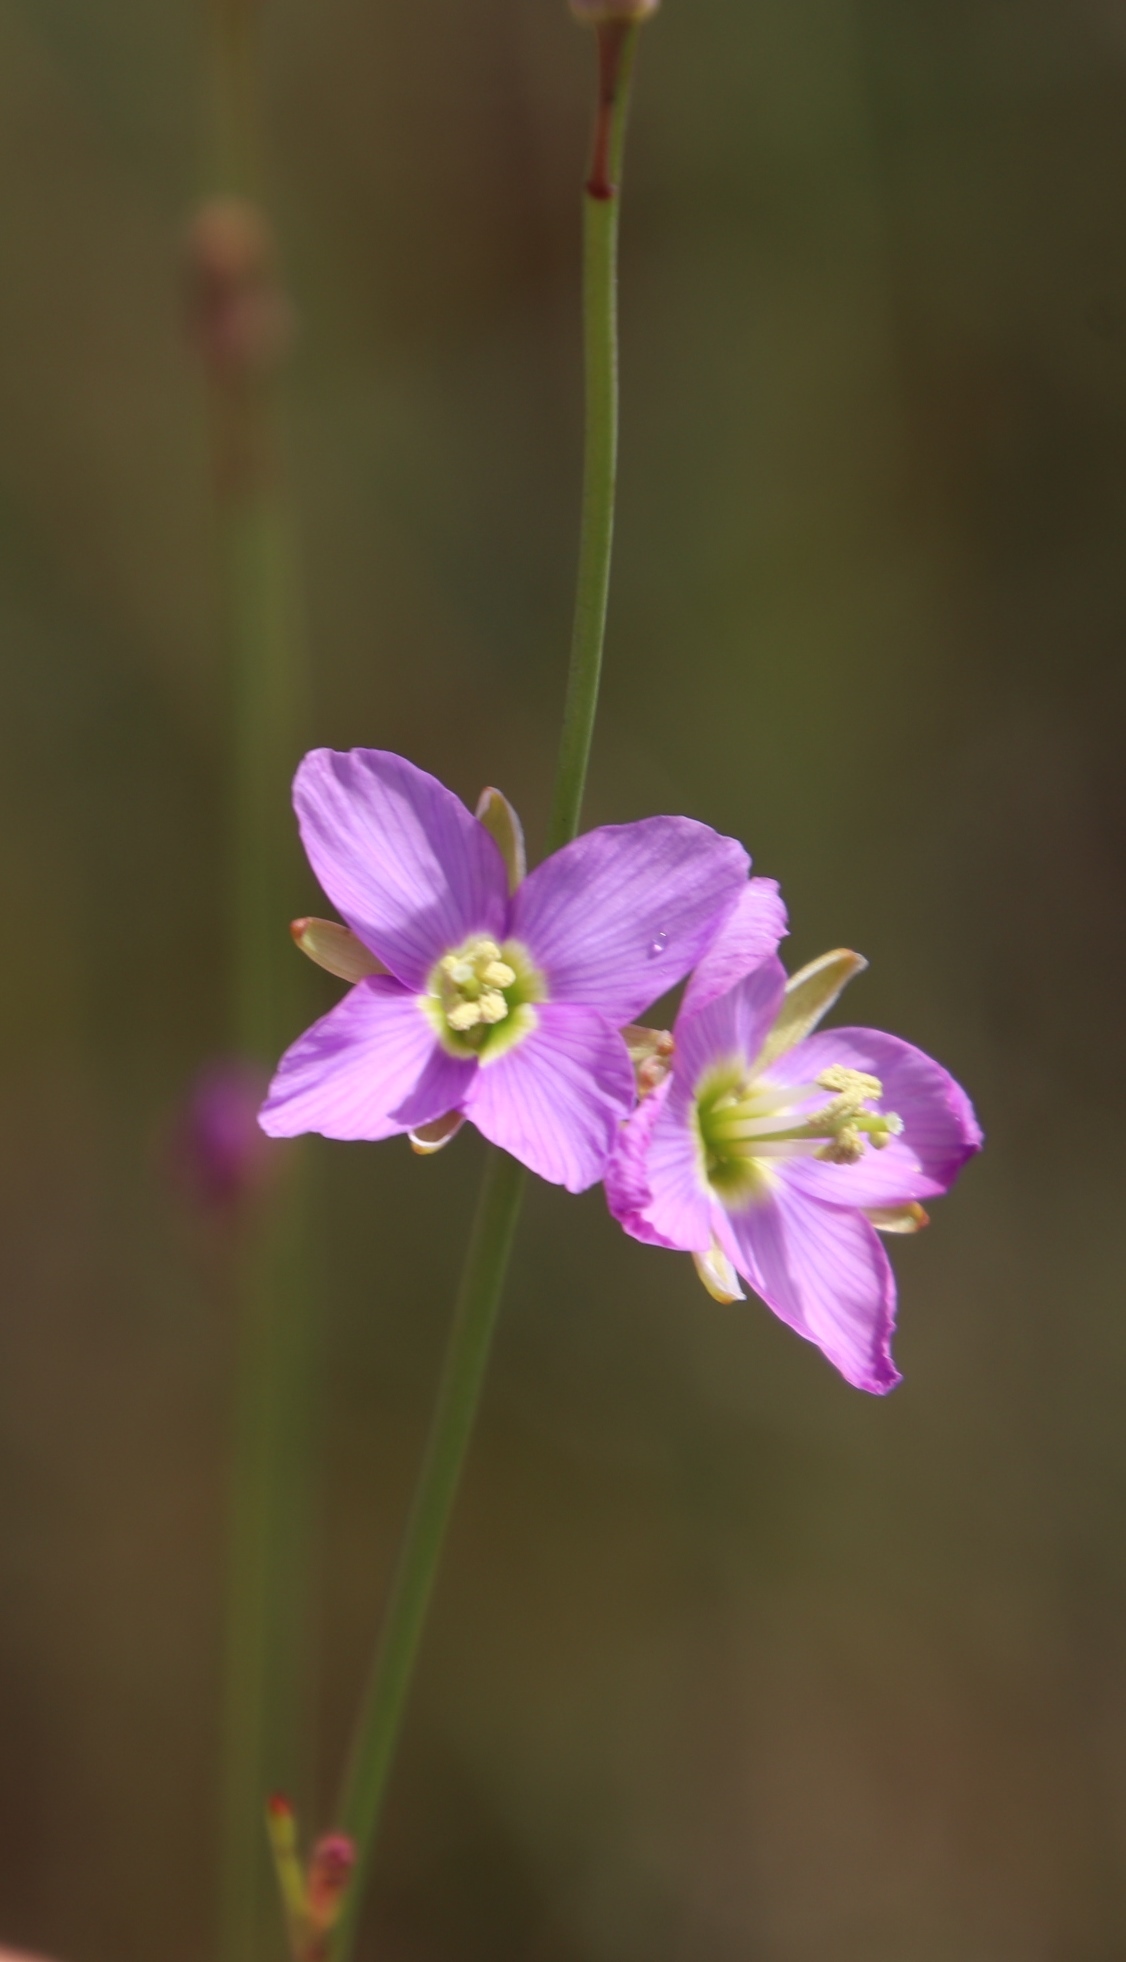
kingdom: Plantae
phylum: Tracheophyta
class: Magnoliopsida
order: Brassicales
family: Brassicaceae
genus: Heliophila
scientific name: Heliophila linoides
